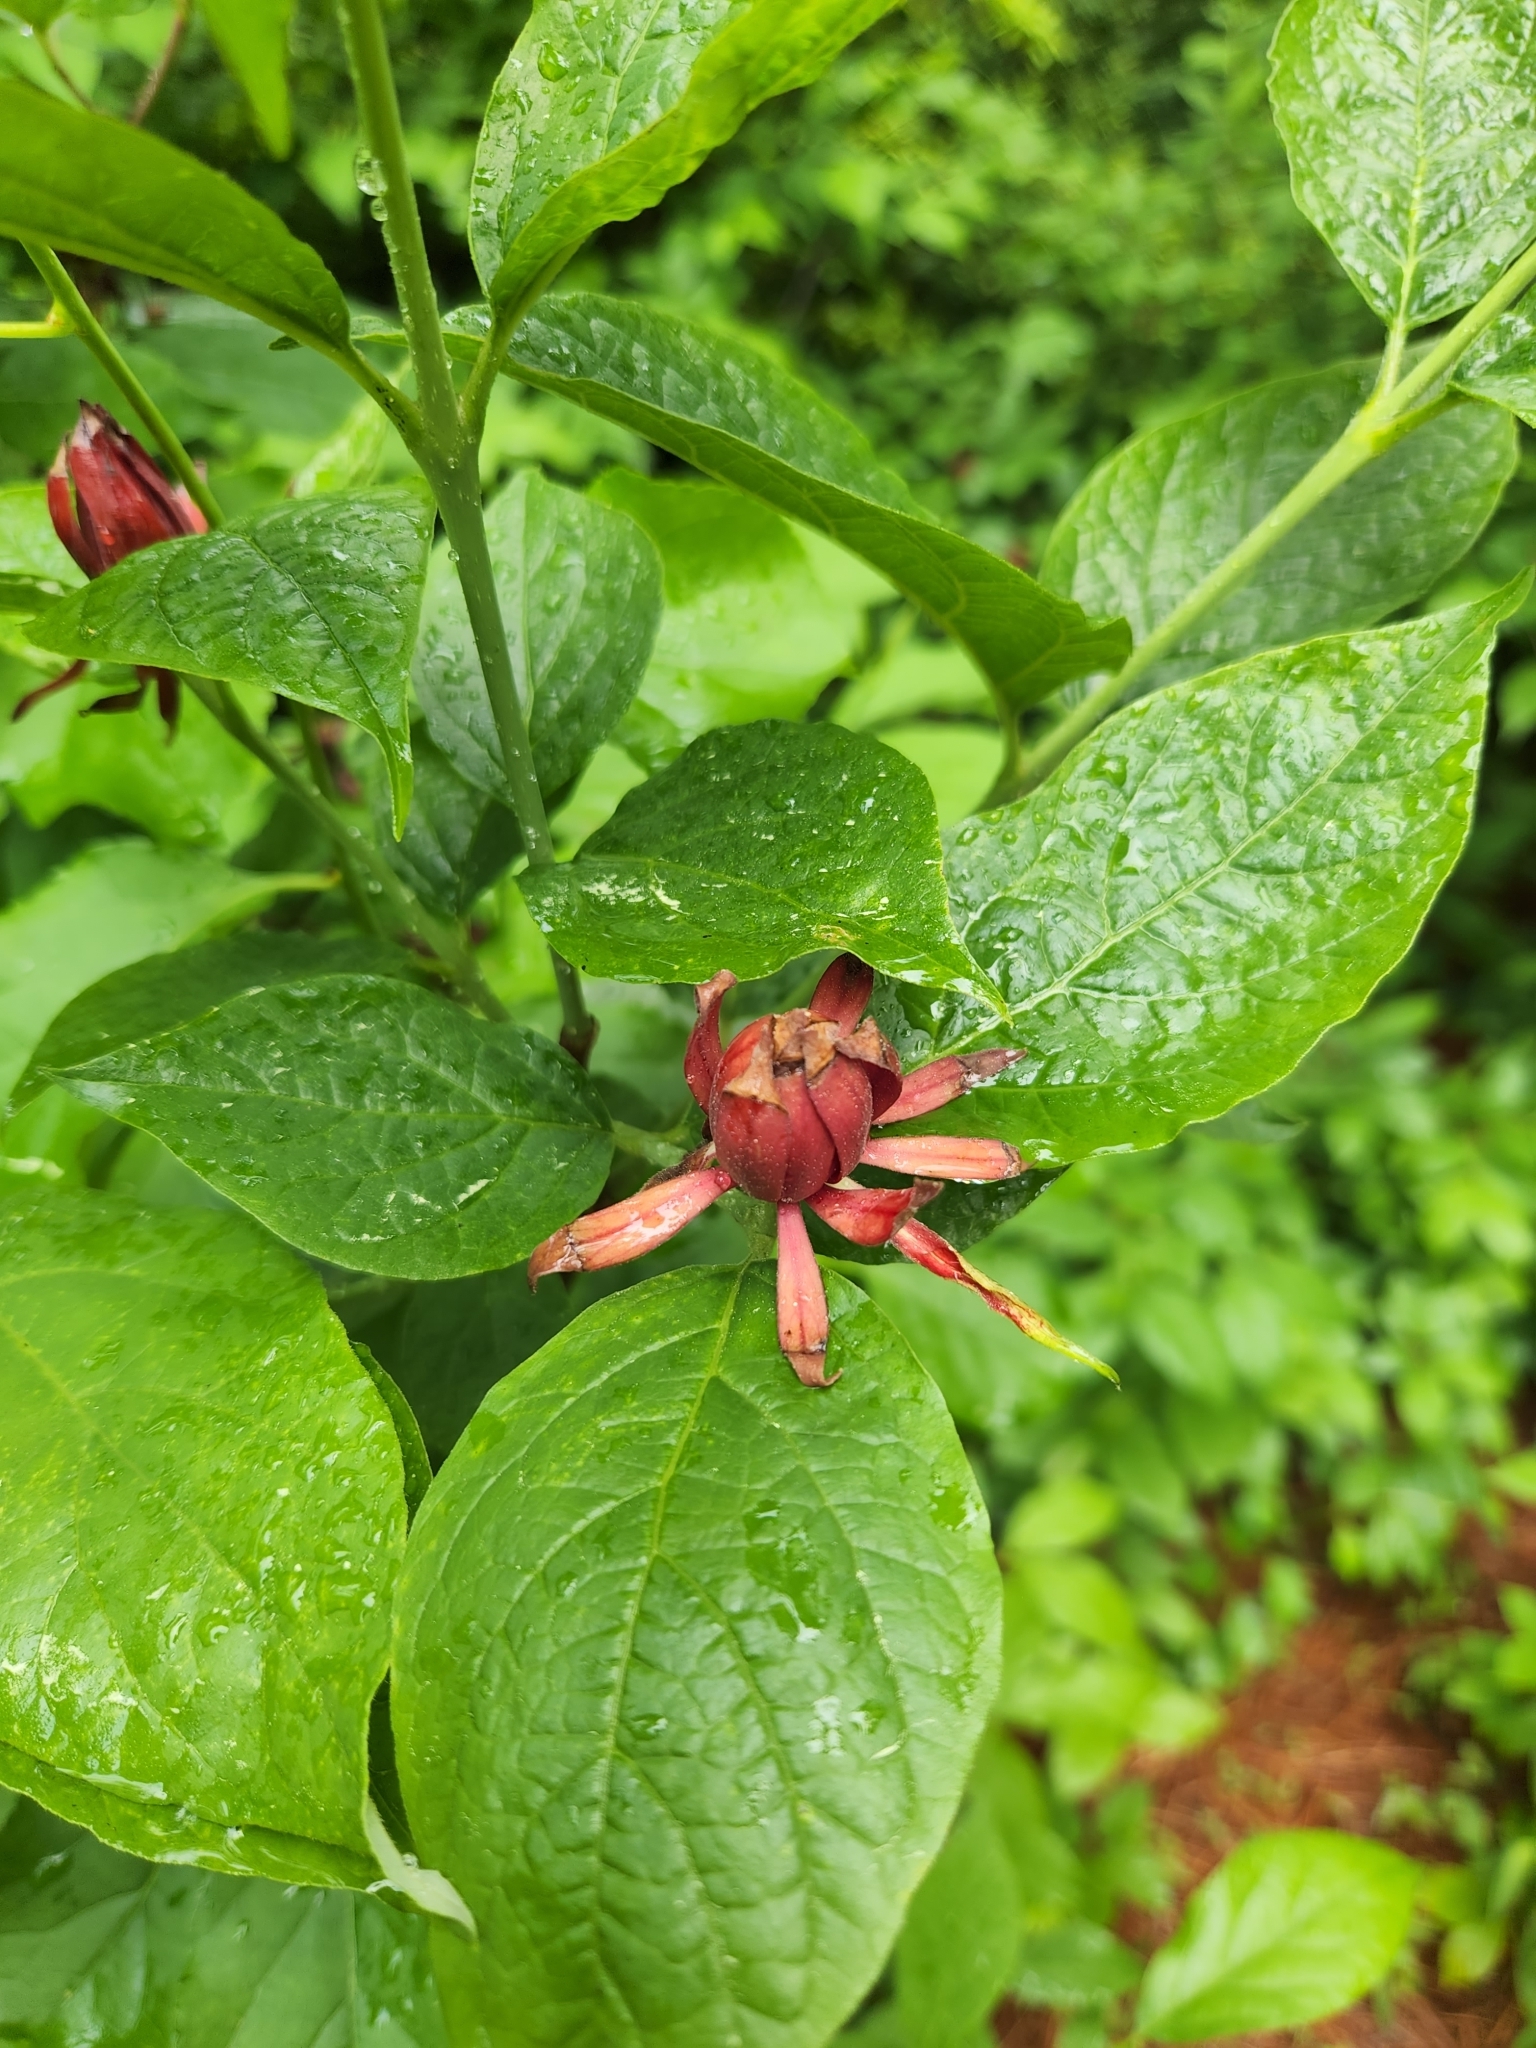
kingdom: Plantae
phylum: Tracheophyta
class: Magnoliopsida
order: Laurales
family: Calycanthaceae
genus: Calycanthus
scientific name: Calycanthus floridus
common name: Carolina-allspice
